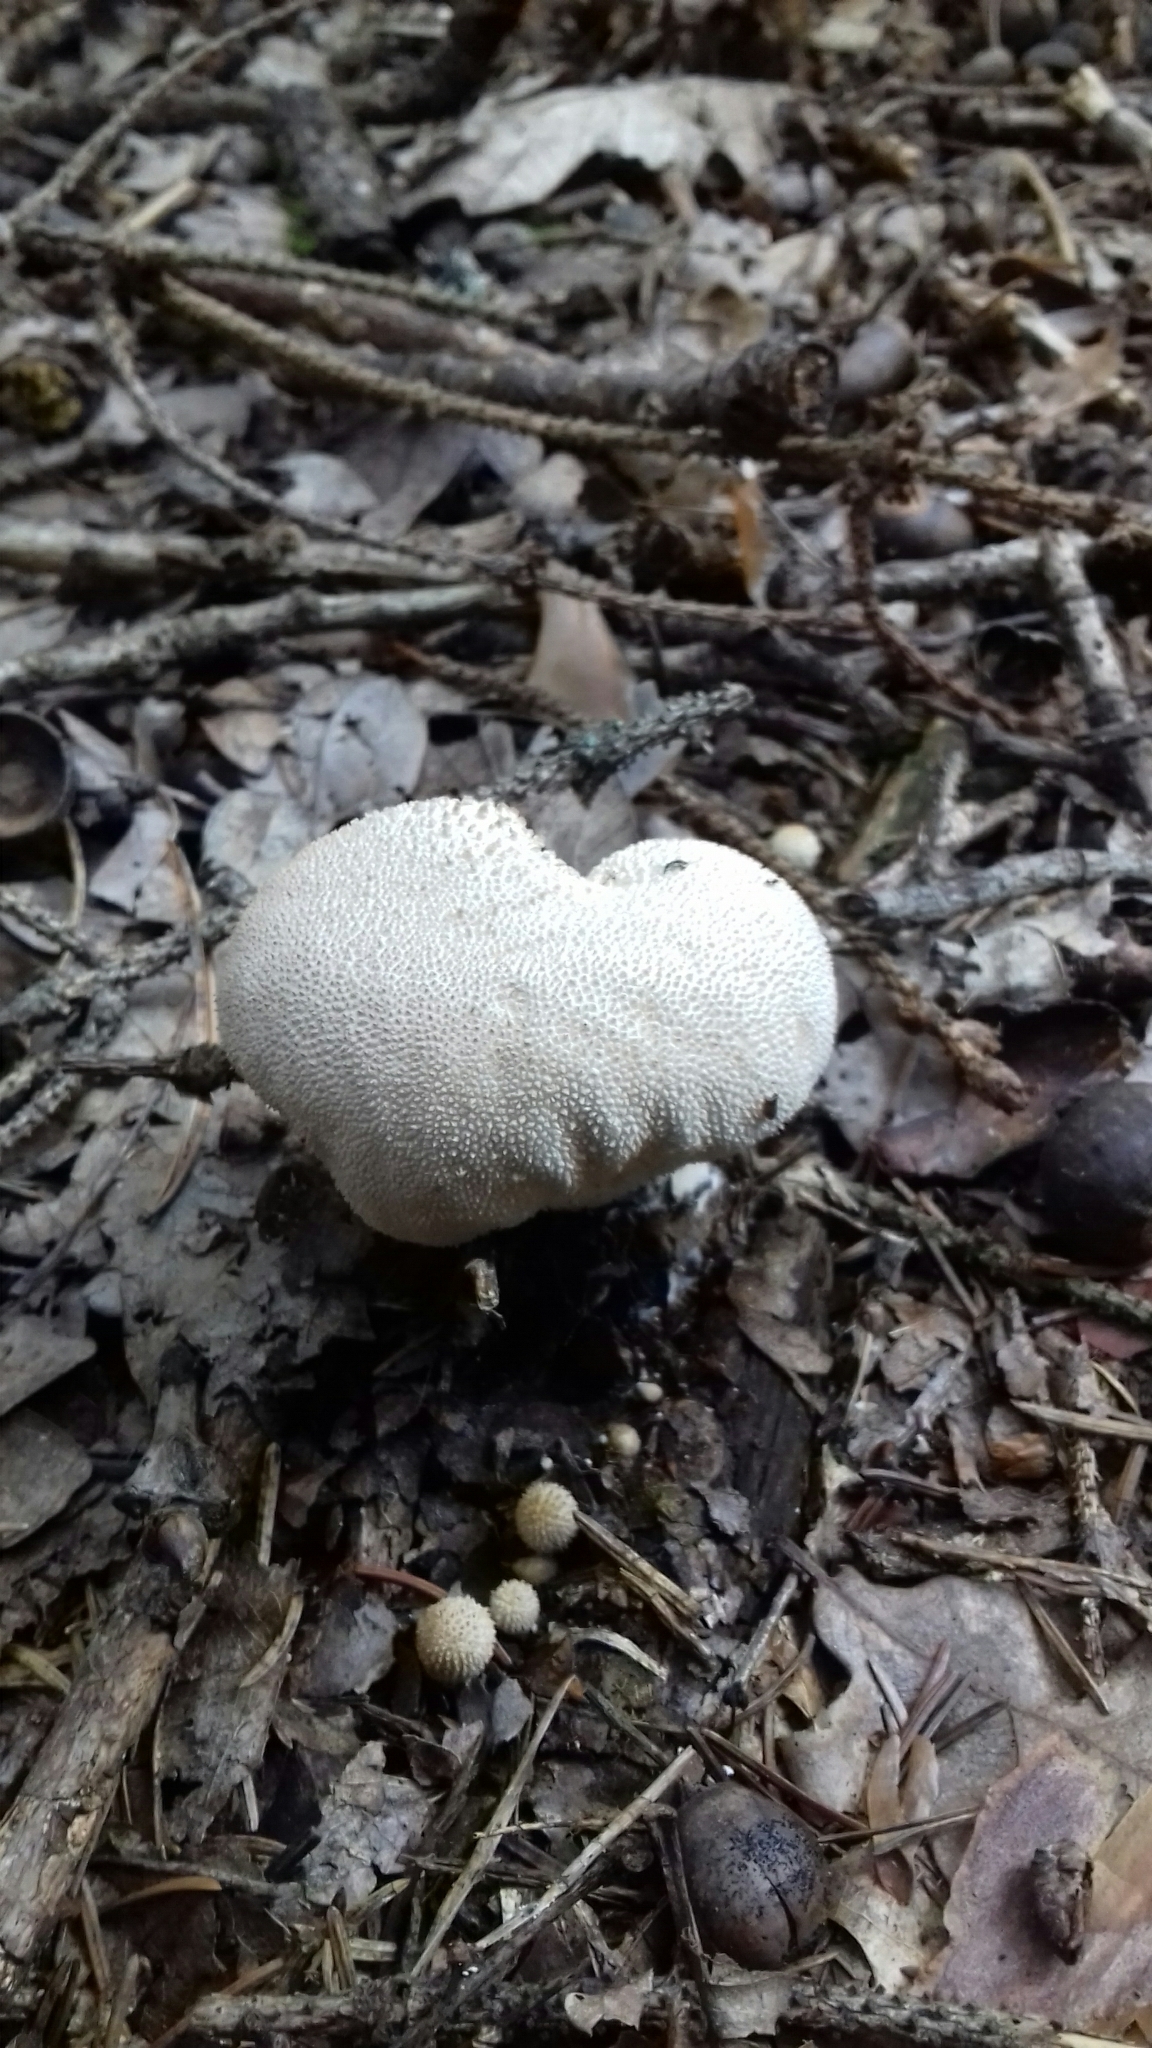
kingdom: Fungi
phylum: Basidiomycota
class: Agaricomycetes
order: Agaricales
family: Lycoperdaceae
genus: Lycoperdon
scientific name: Lycoperdon perlatum
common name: Common puffball
